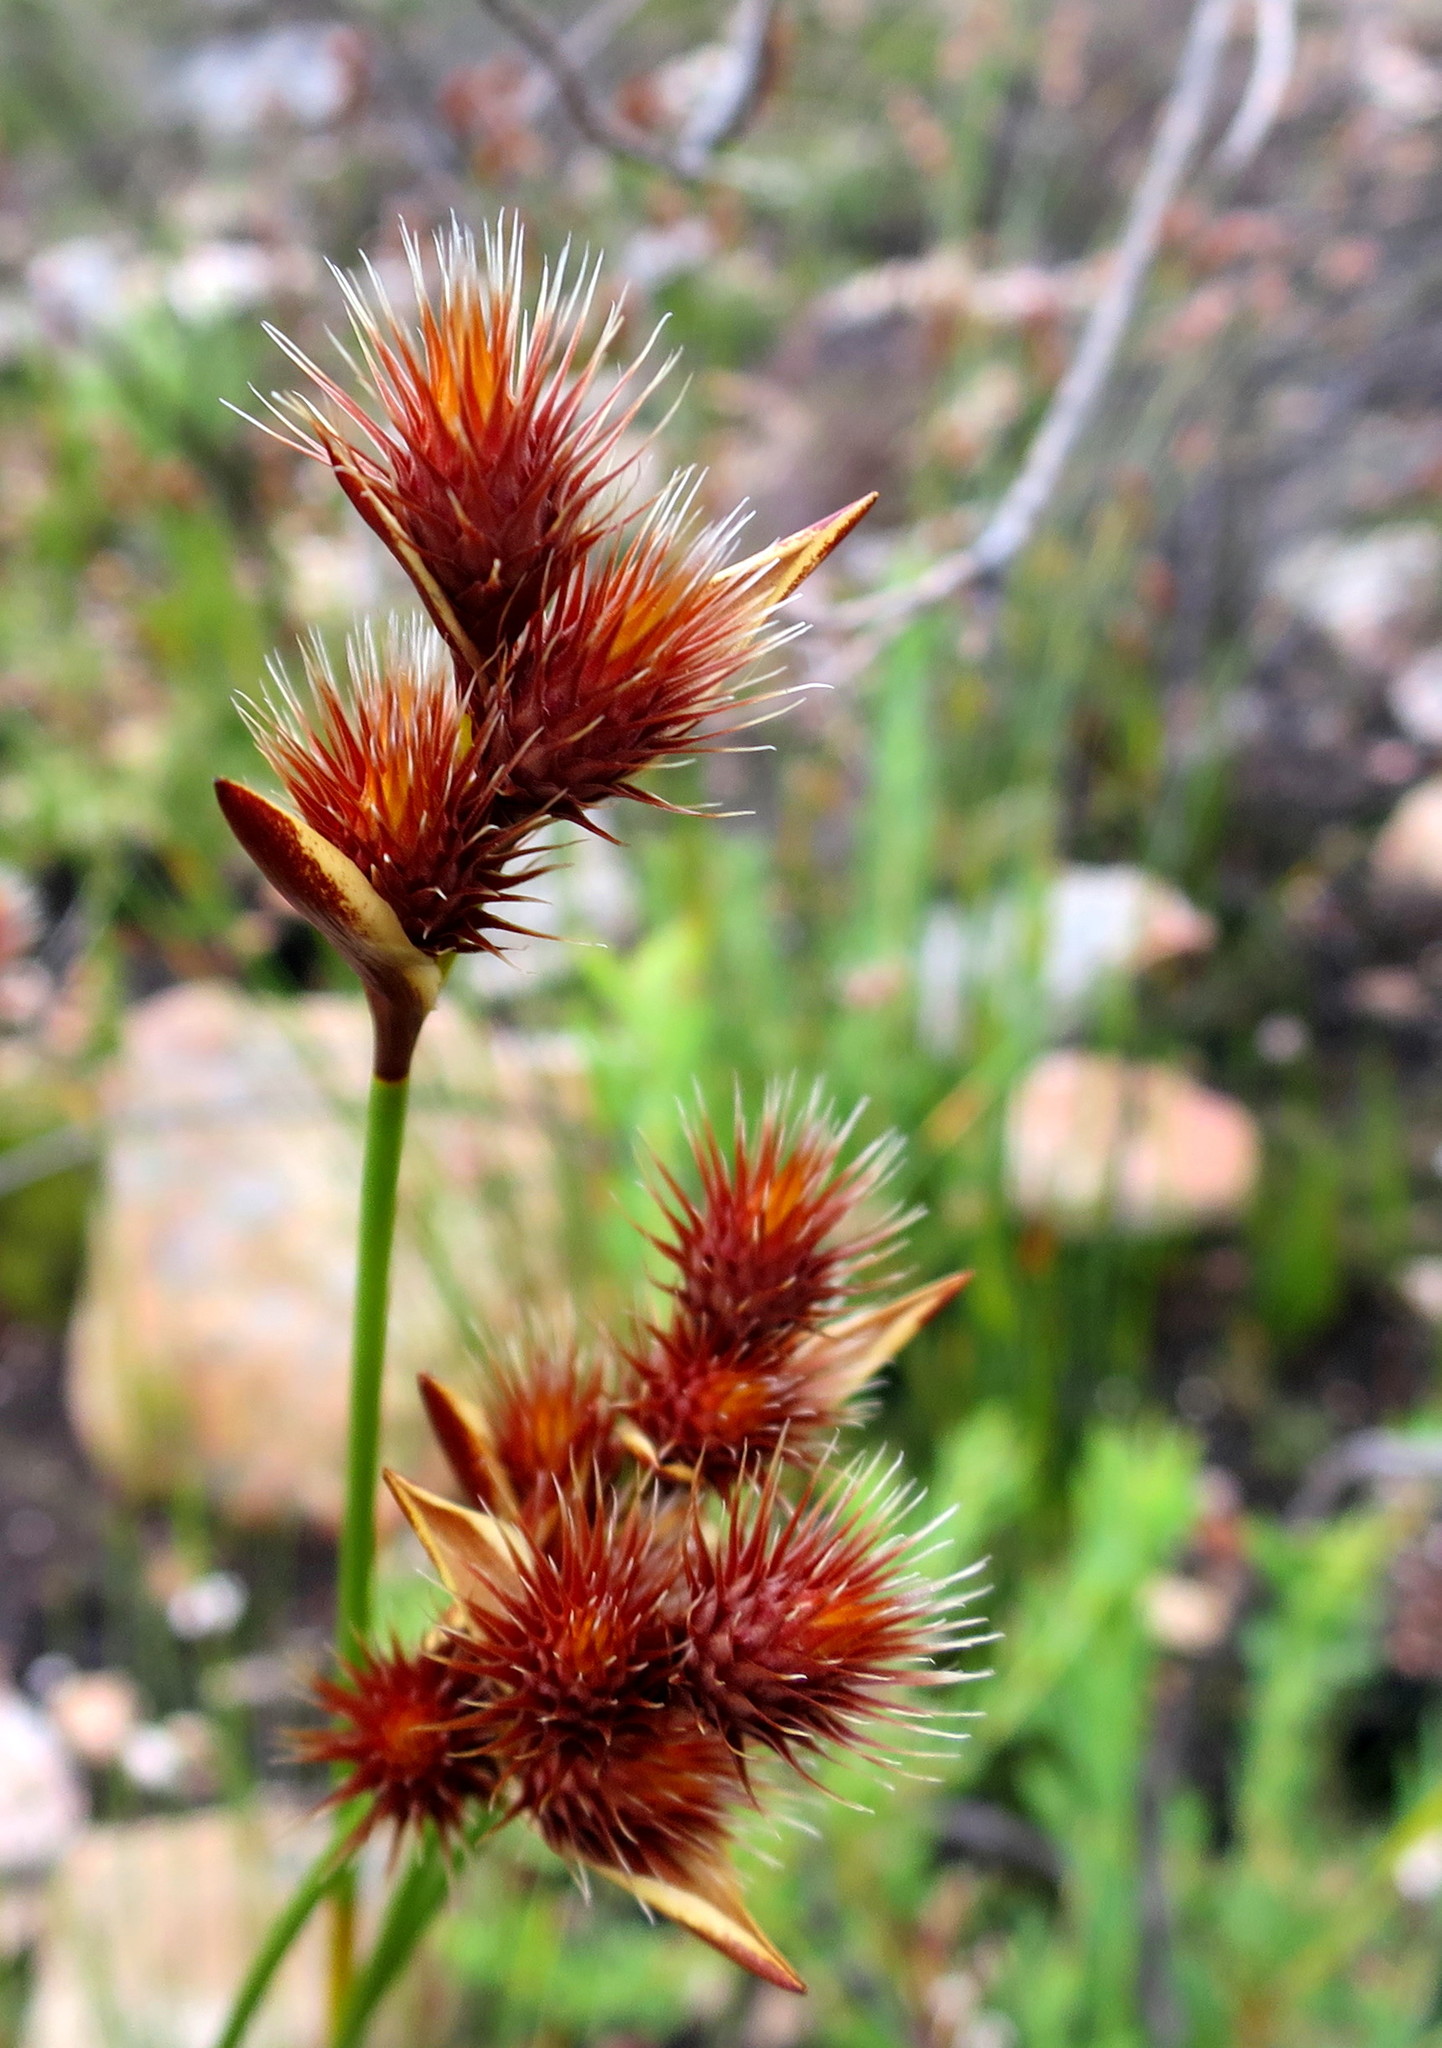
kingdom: Plantae
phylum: Tracheophyta
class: Liliopsida
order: Poales
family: Restionaceae
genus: Hypodiscus
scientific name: Hypodiscus aristatus
